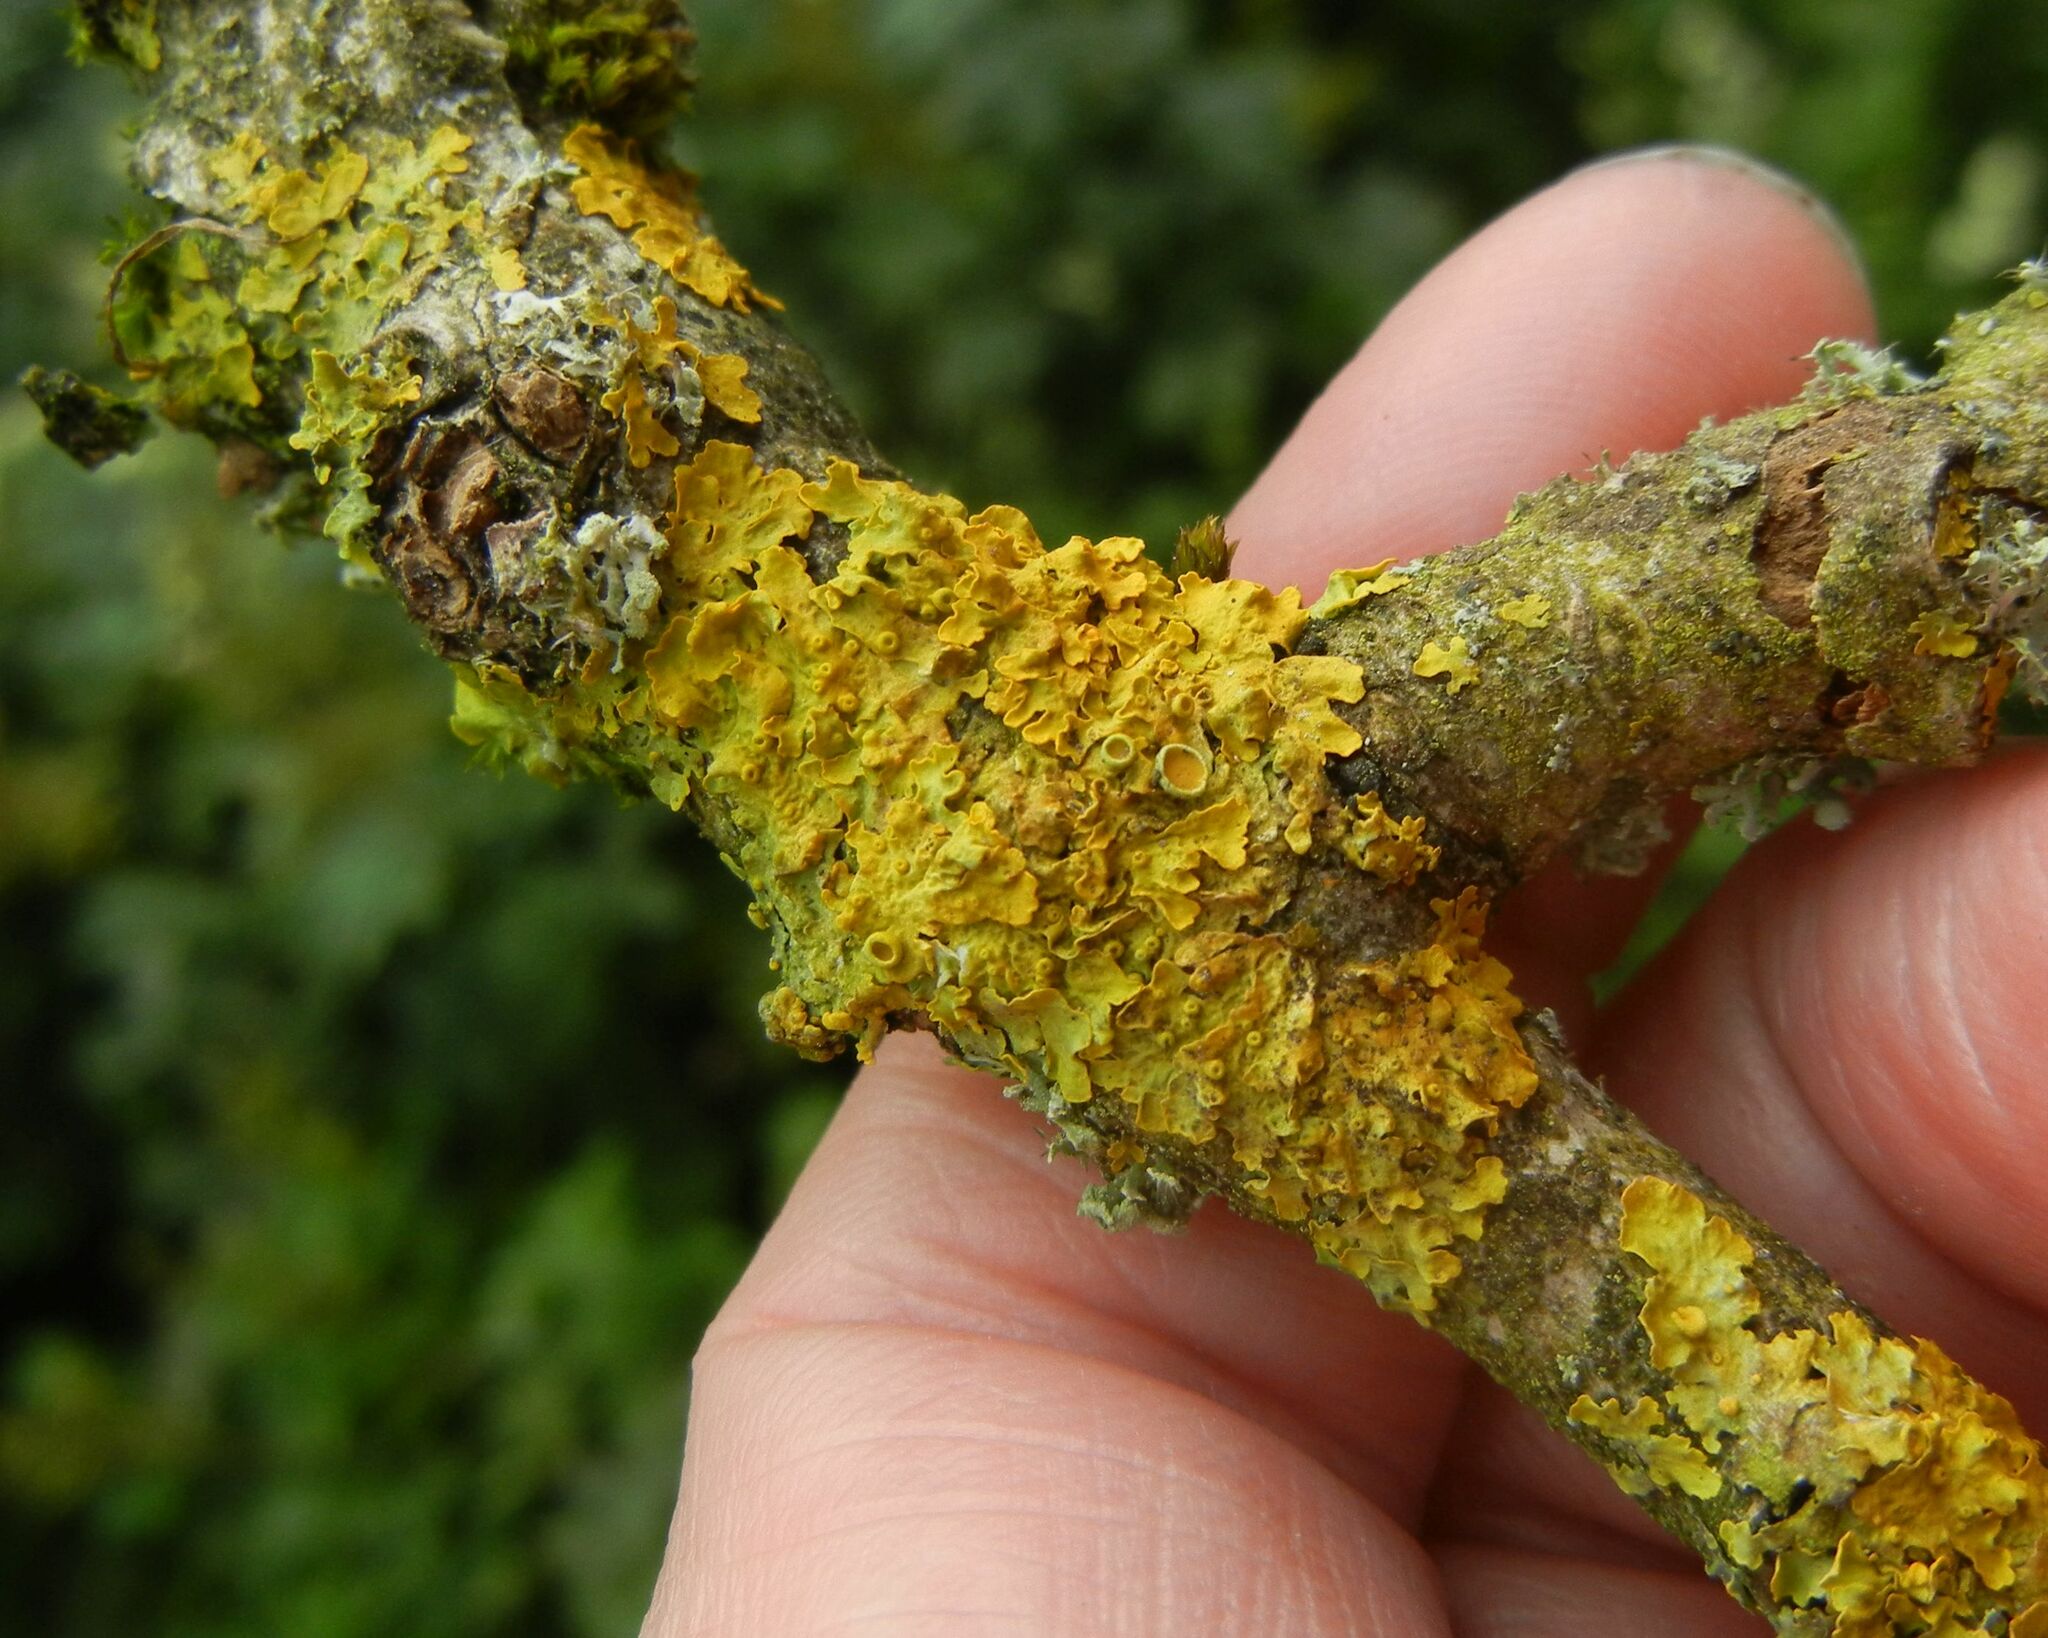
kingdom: Fungi
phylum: Ascomycota
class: Lecanoromycetes
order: Teloschistales
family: Teloschistaceae
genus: Xanthoria
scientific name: Xanthoria parietina
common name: Common orange lichen
